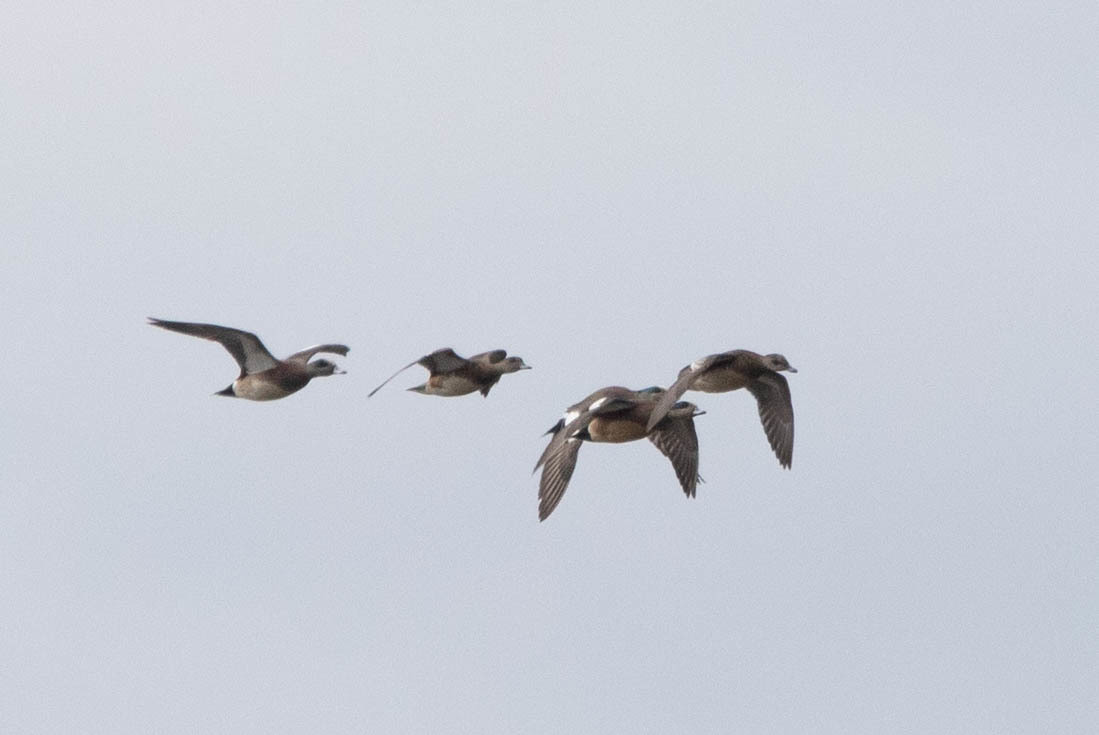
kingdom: Animalia
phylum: Chordata
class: Aves
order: Anseriformes
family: Anatidae
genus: Mareca
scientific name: Mareca americana
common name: American wigeon
